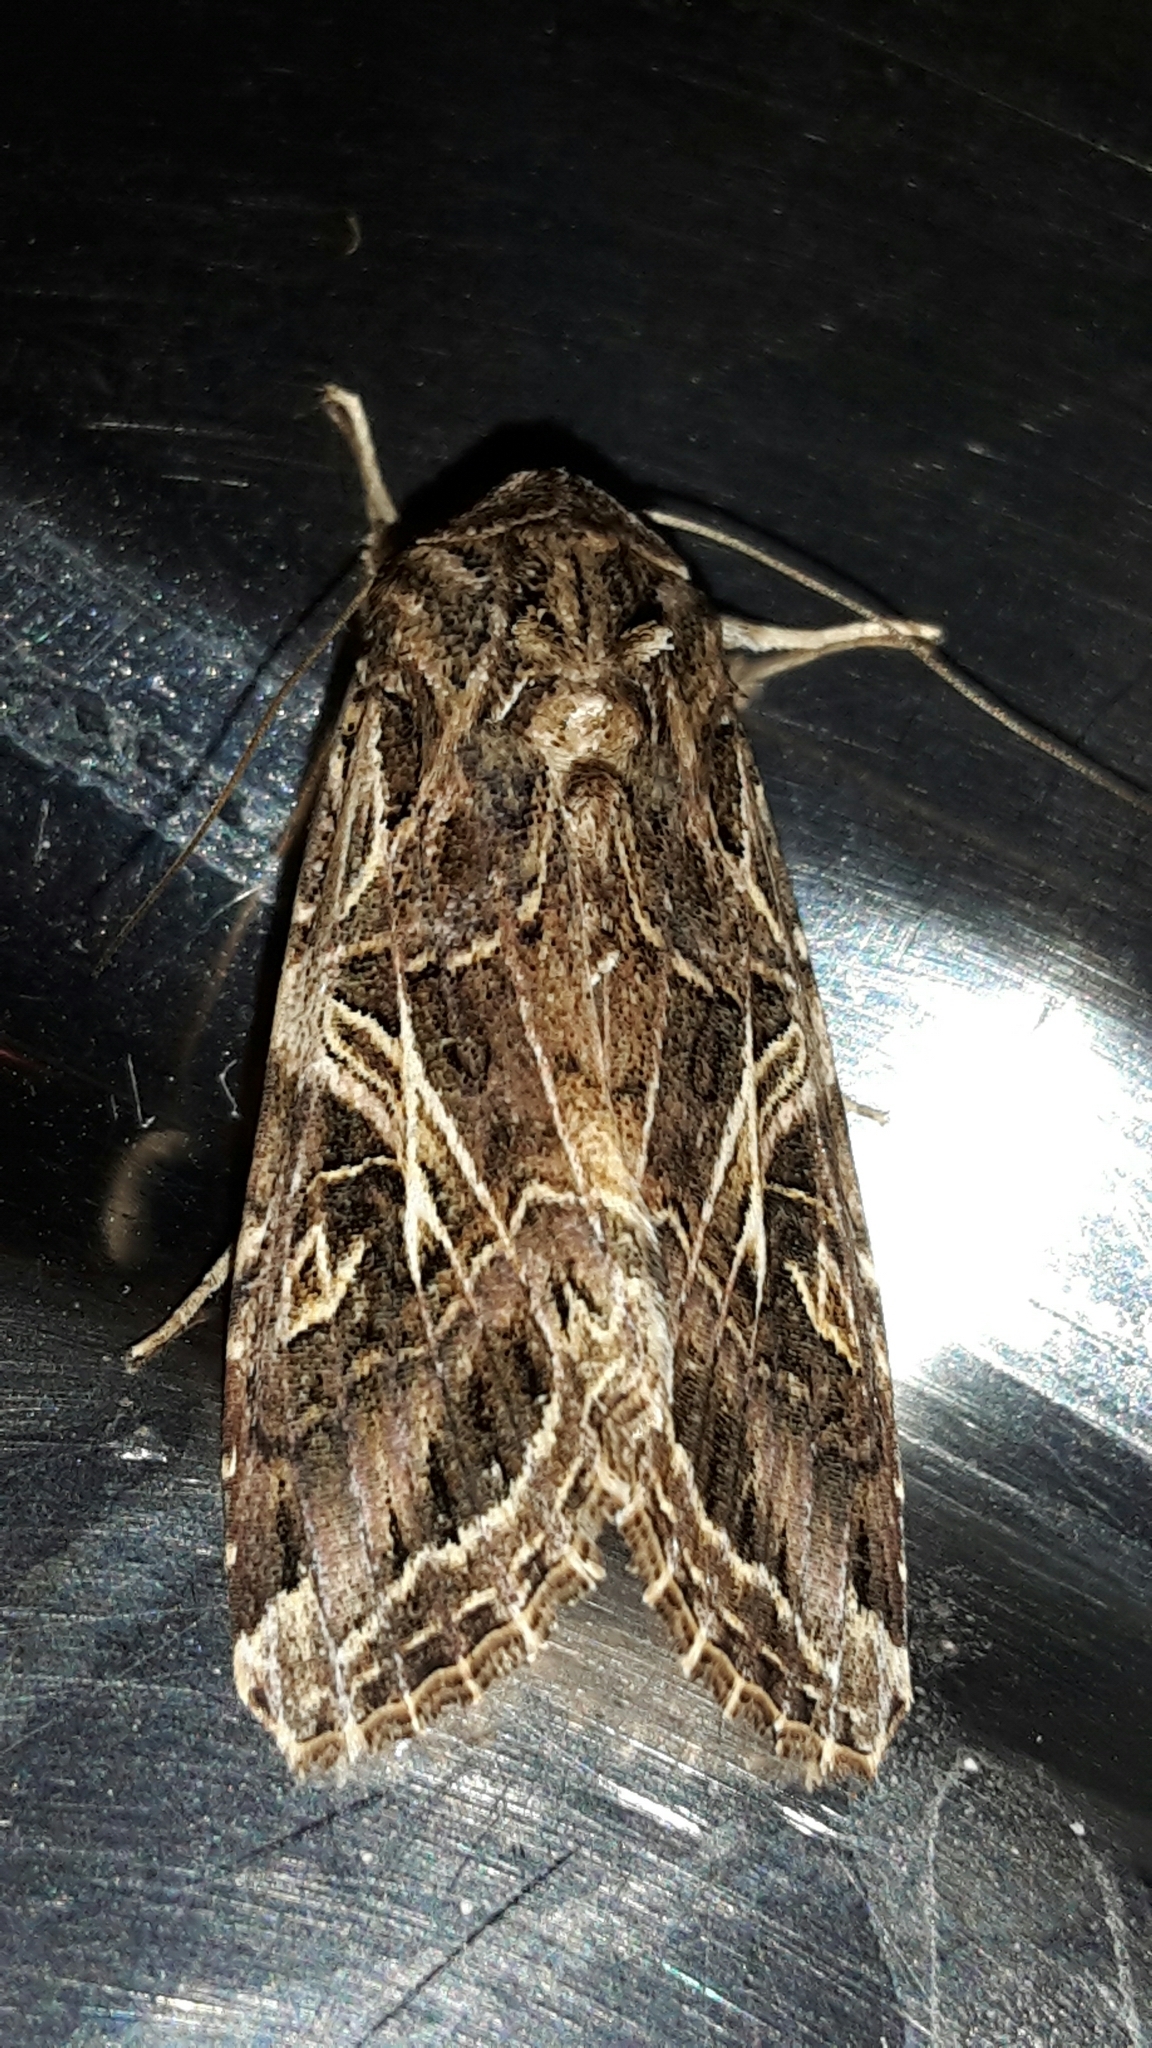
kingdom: Animalia
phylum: Arthropoda
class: Insecta
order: Lepidoptera
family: Noctuidae
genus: Spodoptera
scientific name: Spodoptera litura
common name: Asian cotton leafworm
